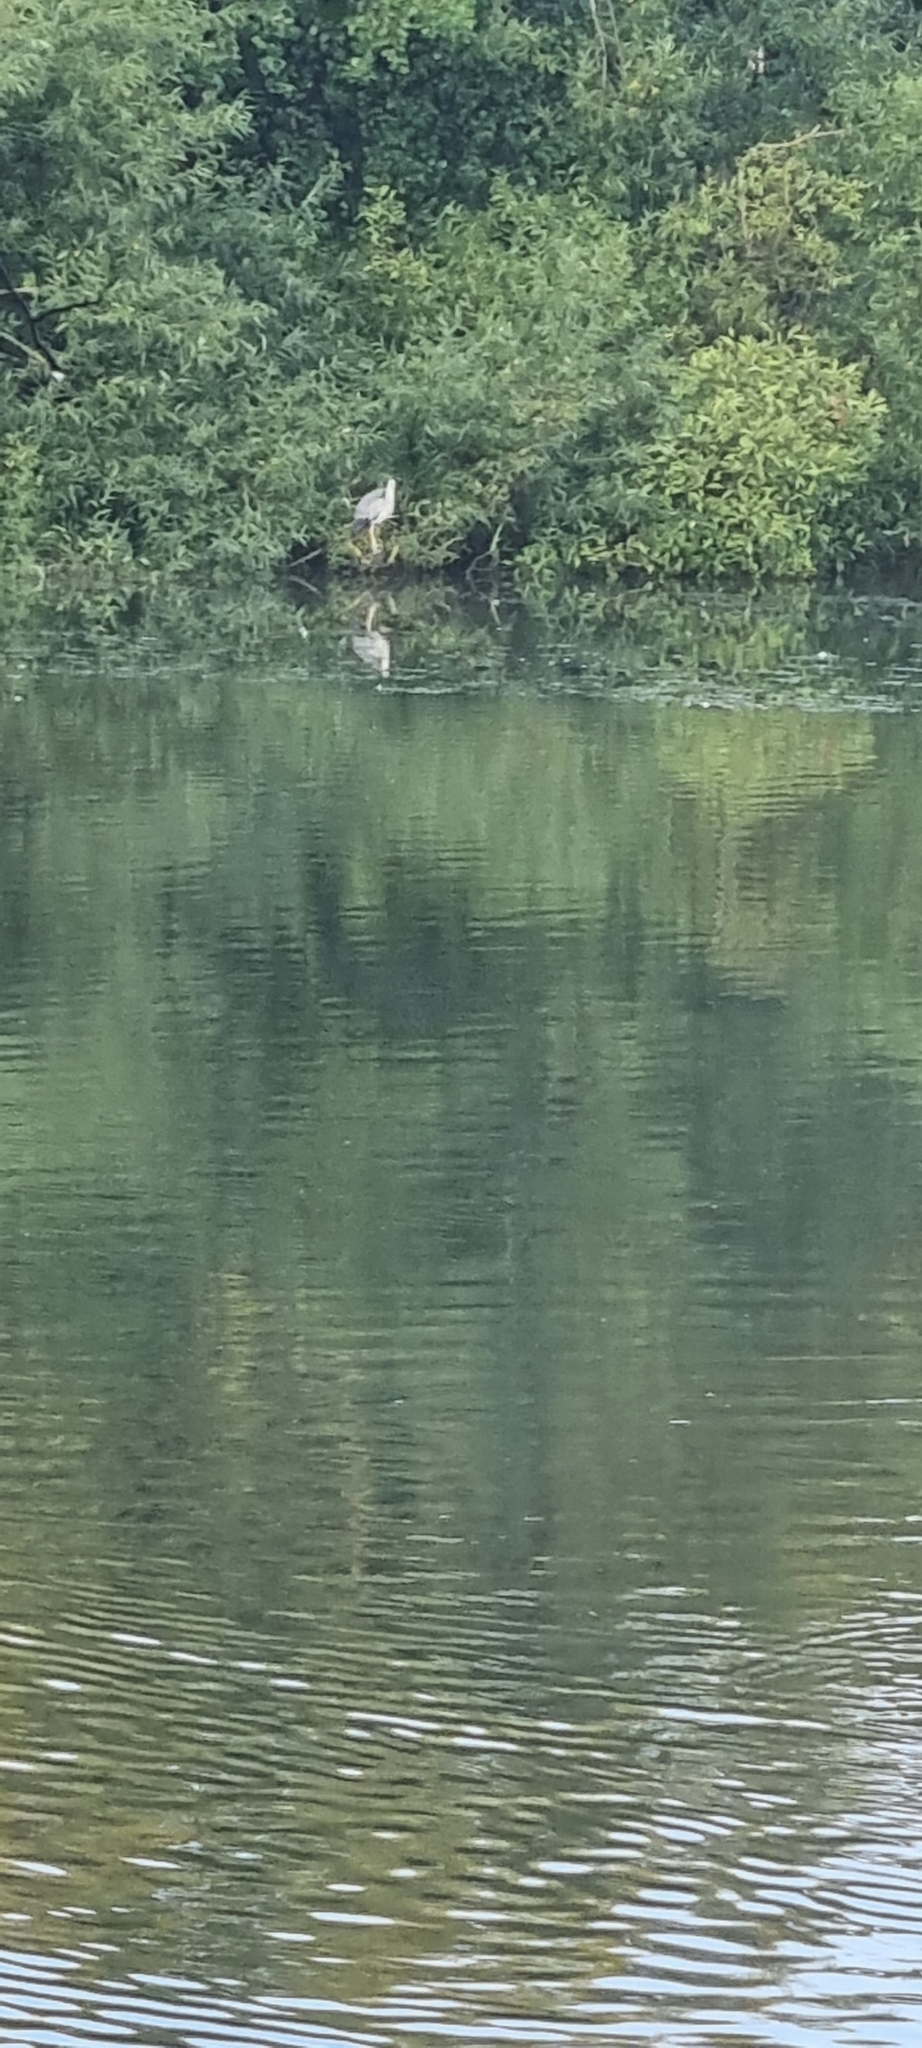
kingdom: Animalia
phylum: Chordata
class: Aves
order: Pelecaniformes
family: Ardeidae
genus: Ardea
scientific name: Ardea cinerea
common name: Grey heron
